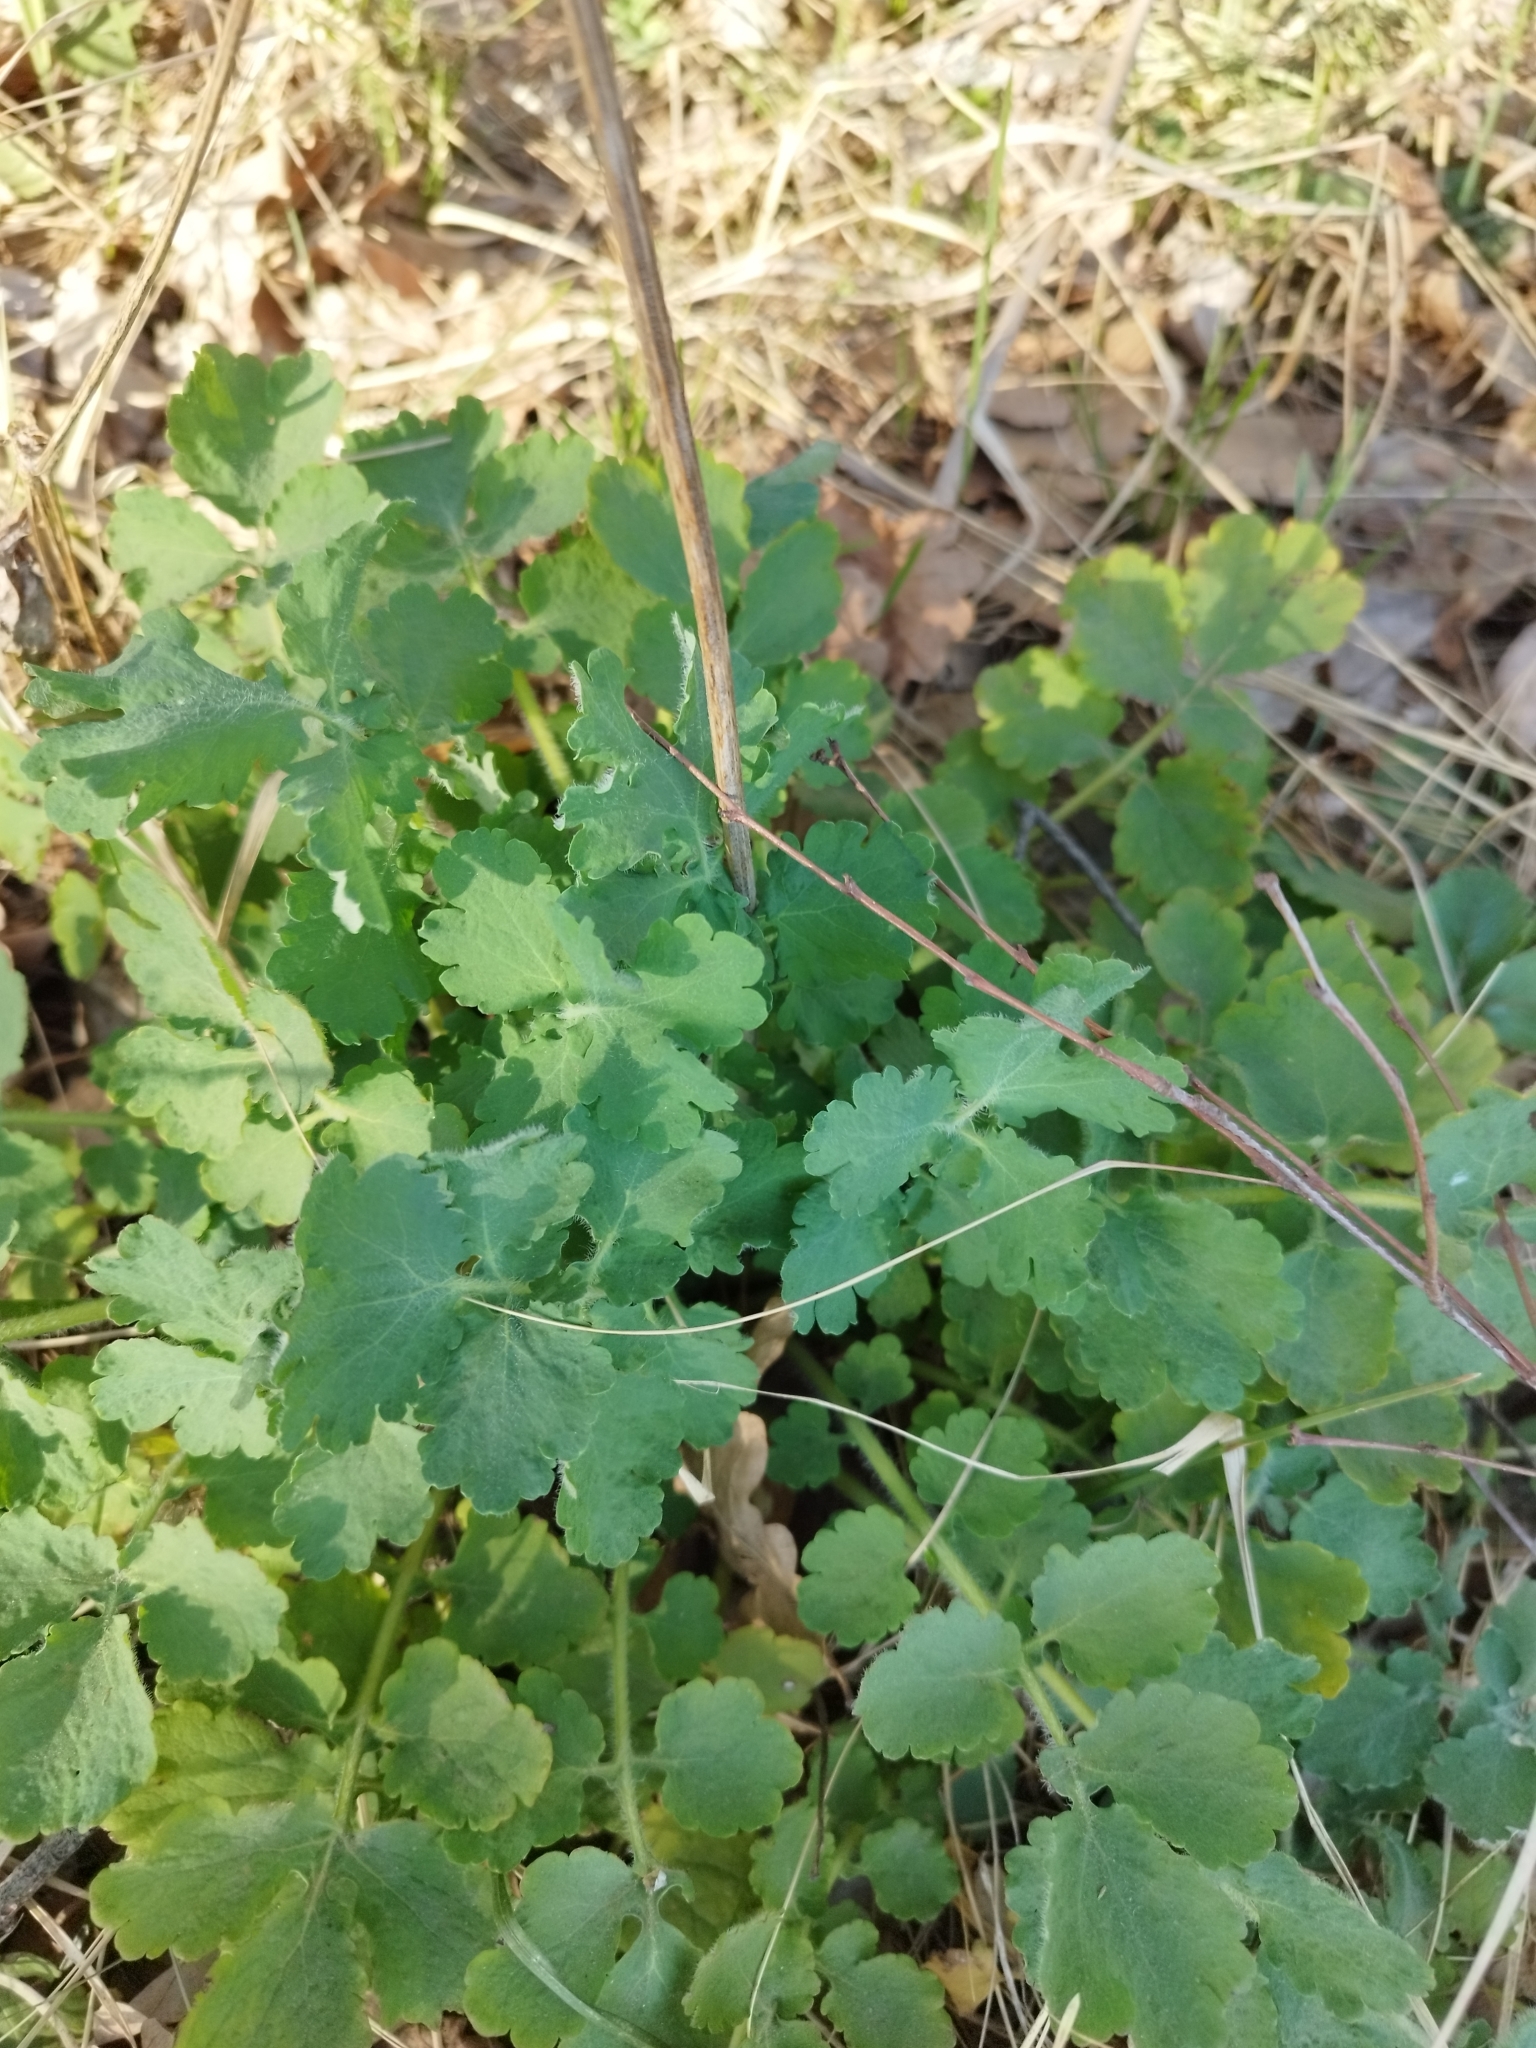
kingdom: Plantae
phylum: Tracheophyta
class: Magnoliopsida
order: Ranunculales
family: Papaveraceae
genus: Chelidonium
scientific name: Chelidonium majus
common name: Greater celandine
